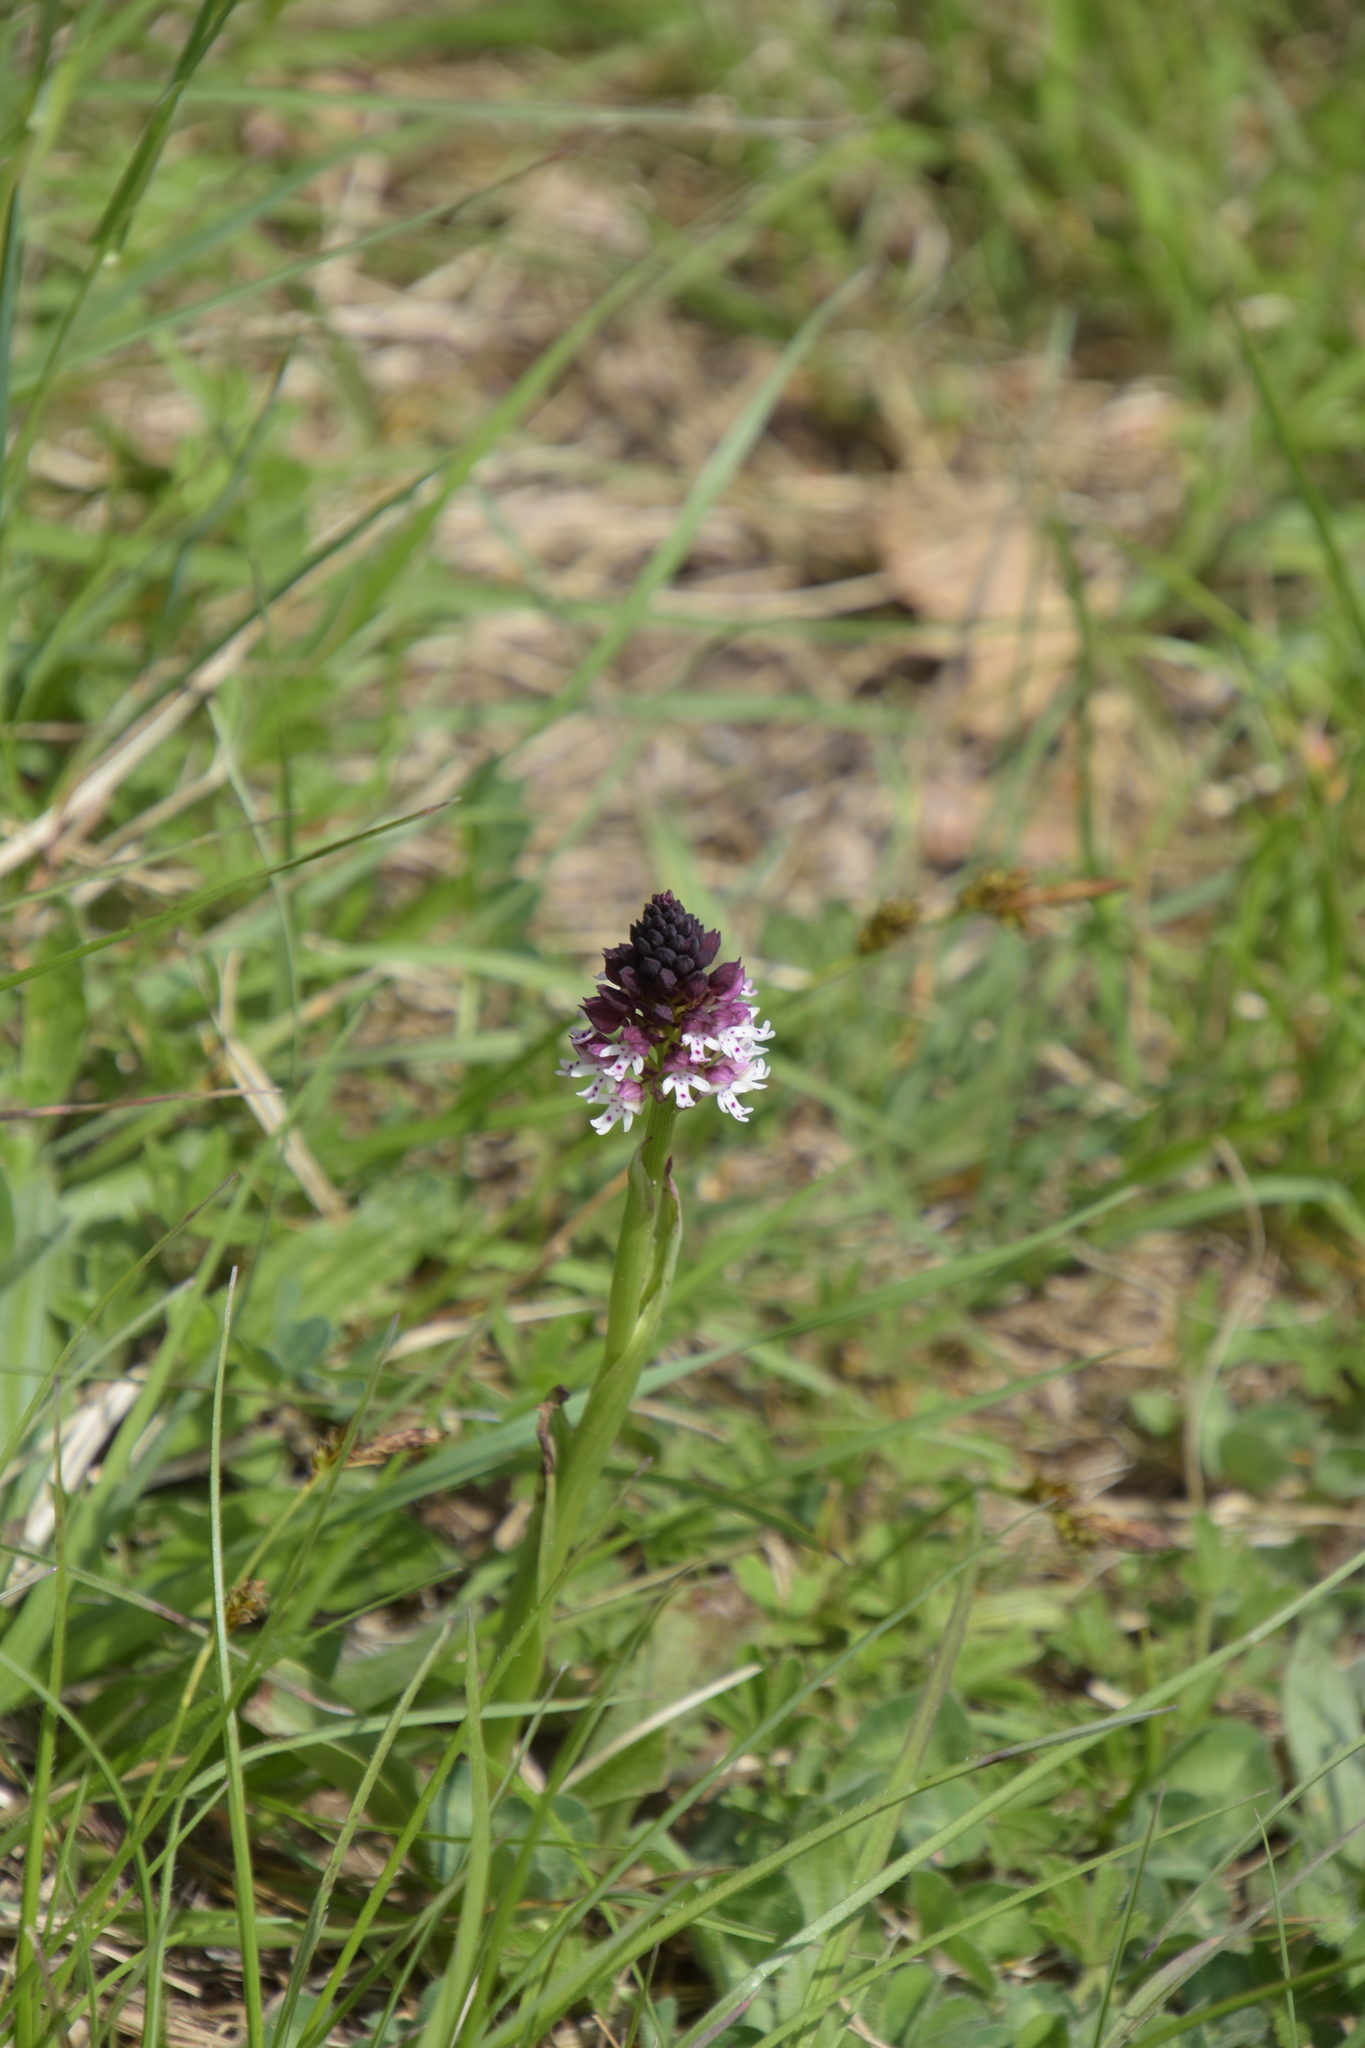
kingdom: Plantae
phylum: Tracheophyta
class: Liliopsida
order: Asparagales
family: Orchidaceae
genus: Neotinea
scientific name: Neotinea ustulata
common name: Burnt orchid
